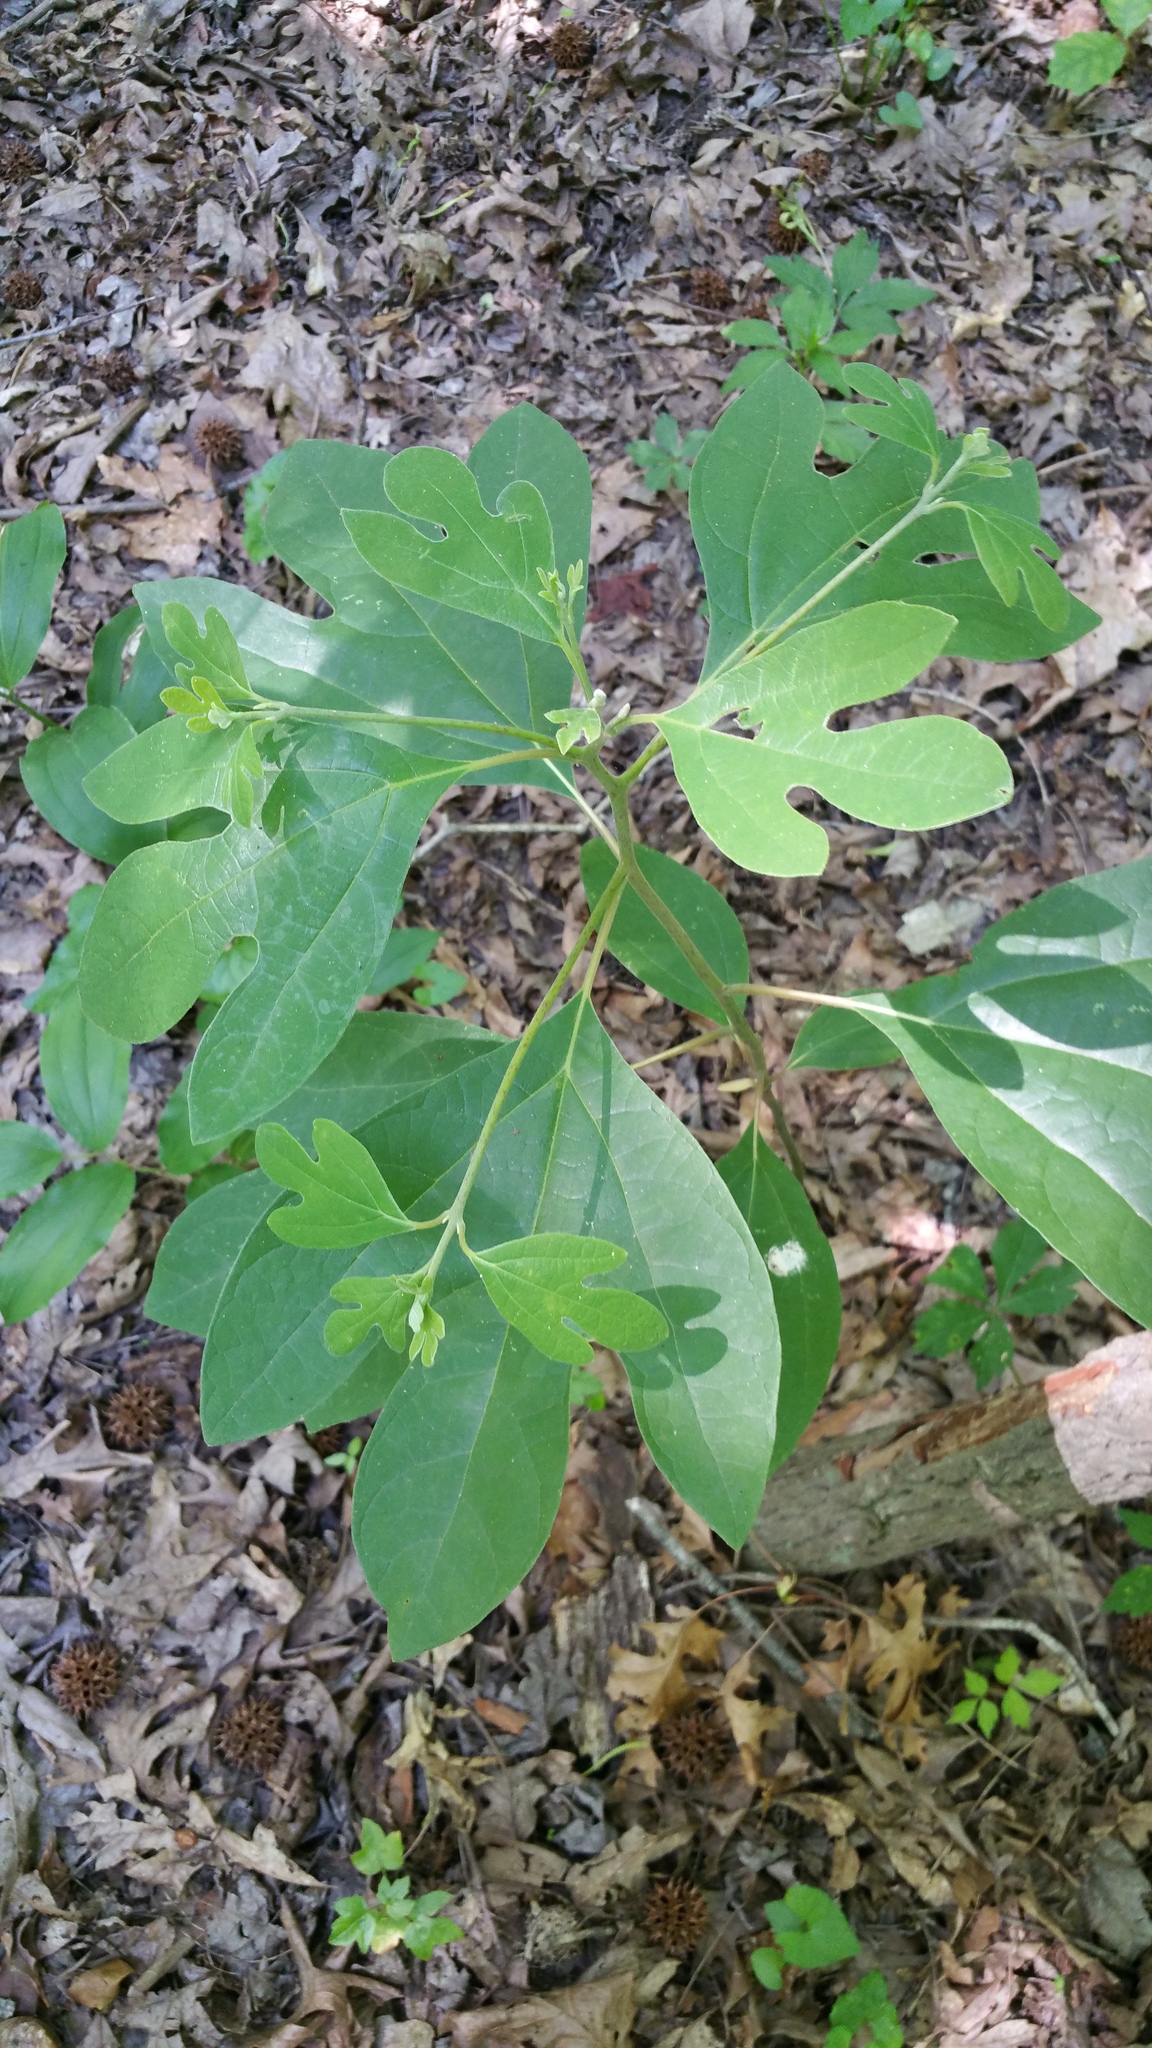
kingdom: Plantae
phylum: Tracheophyta
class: Magnoliopsida
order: Laurales
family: Lauraceae
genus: Sassafras
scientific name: Sassafras albidum
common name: Sassafras
